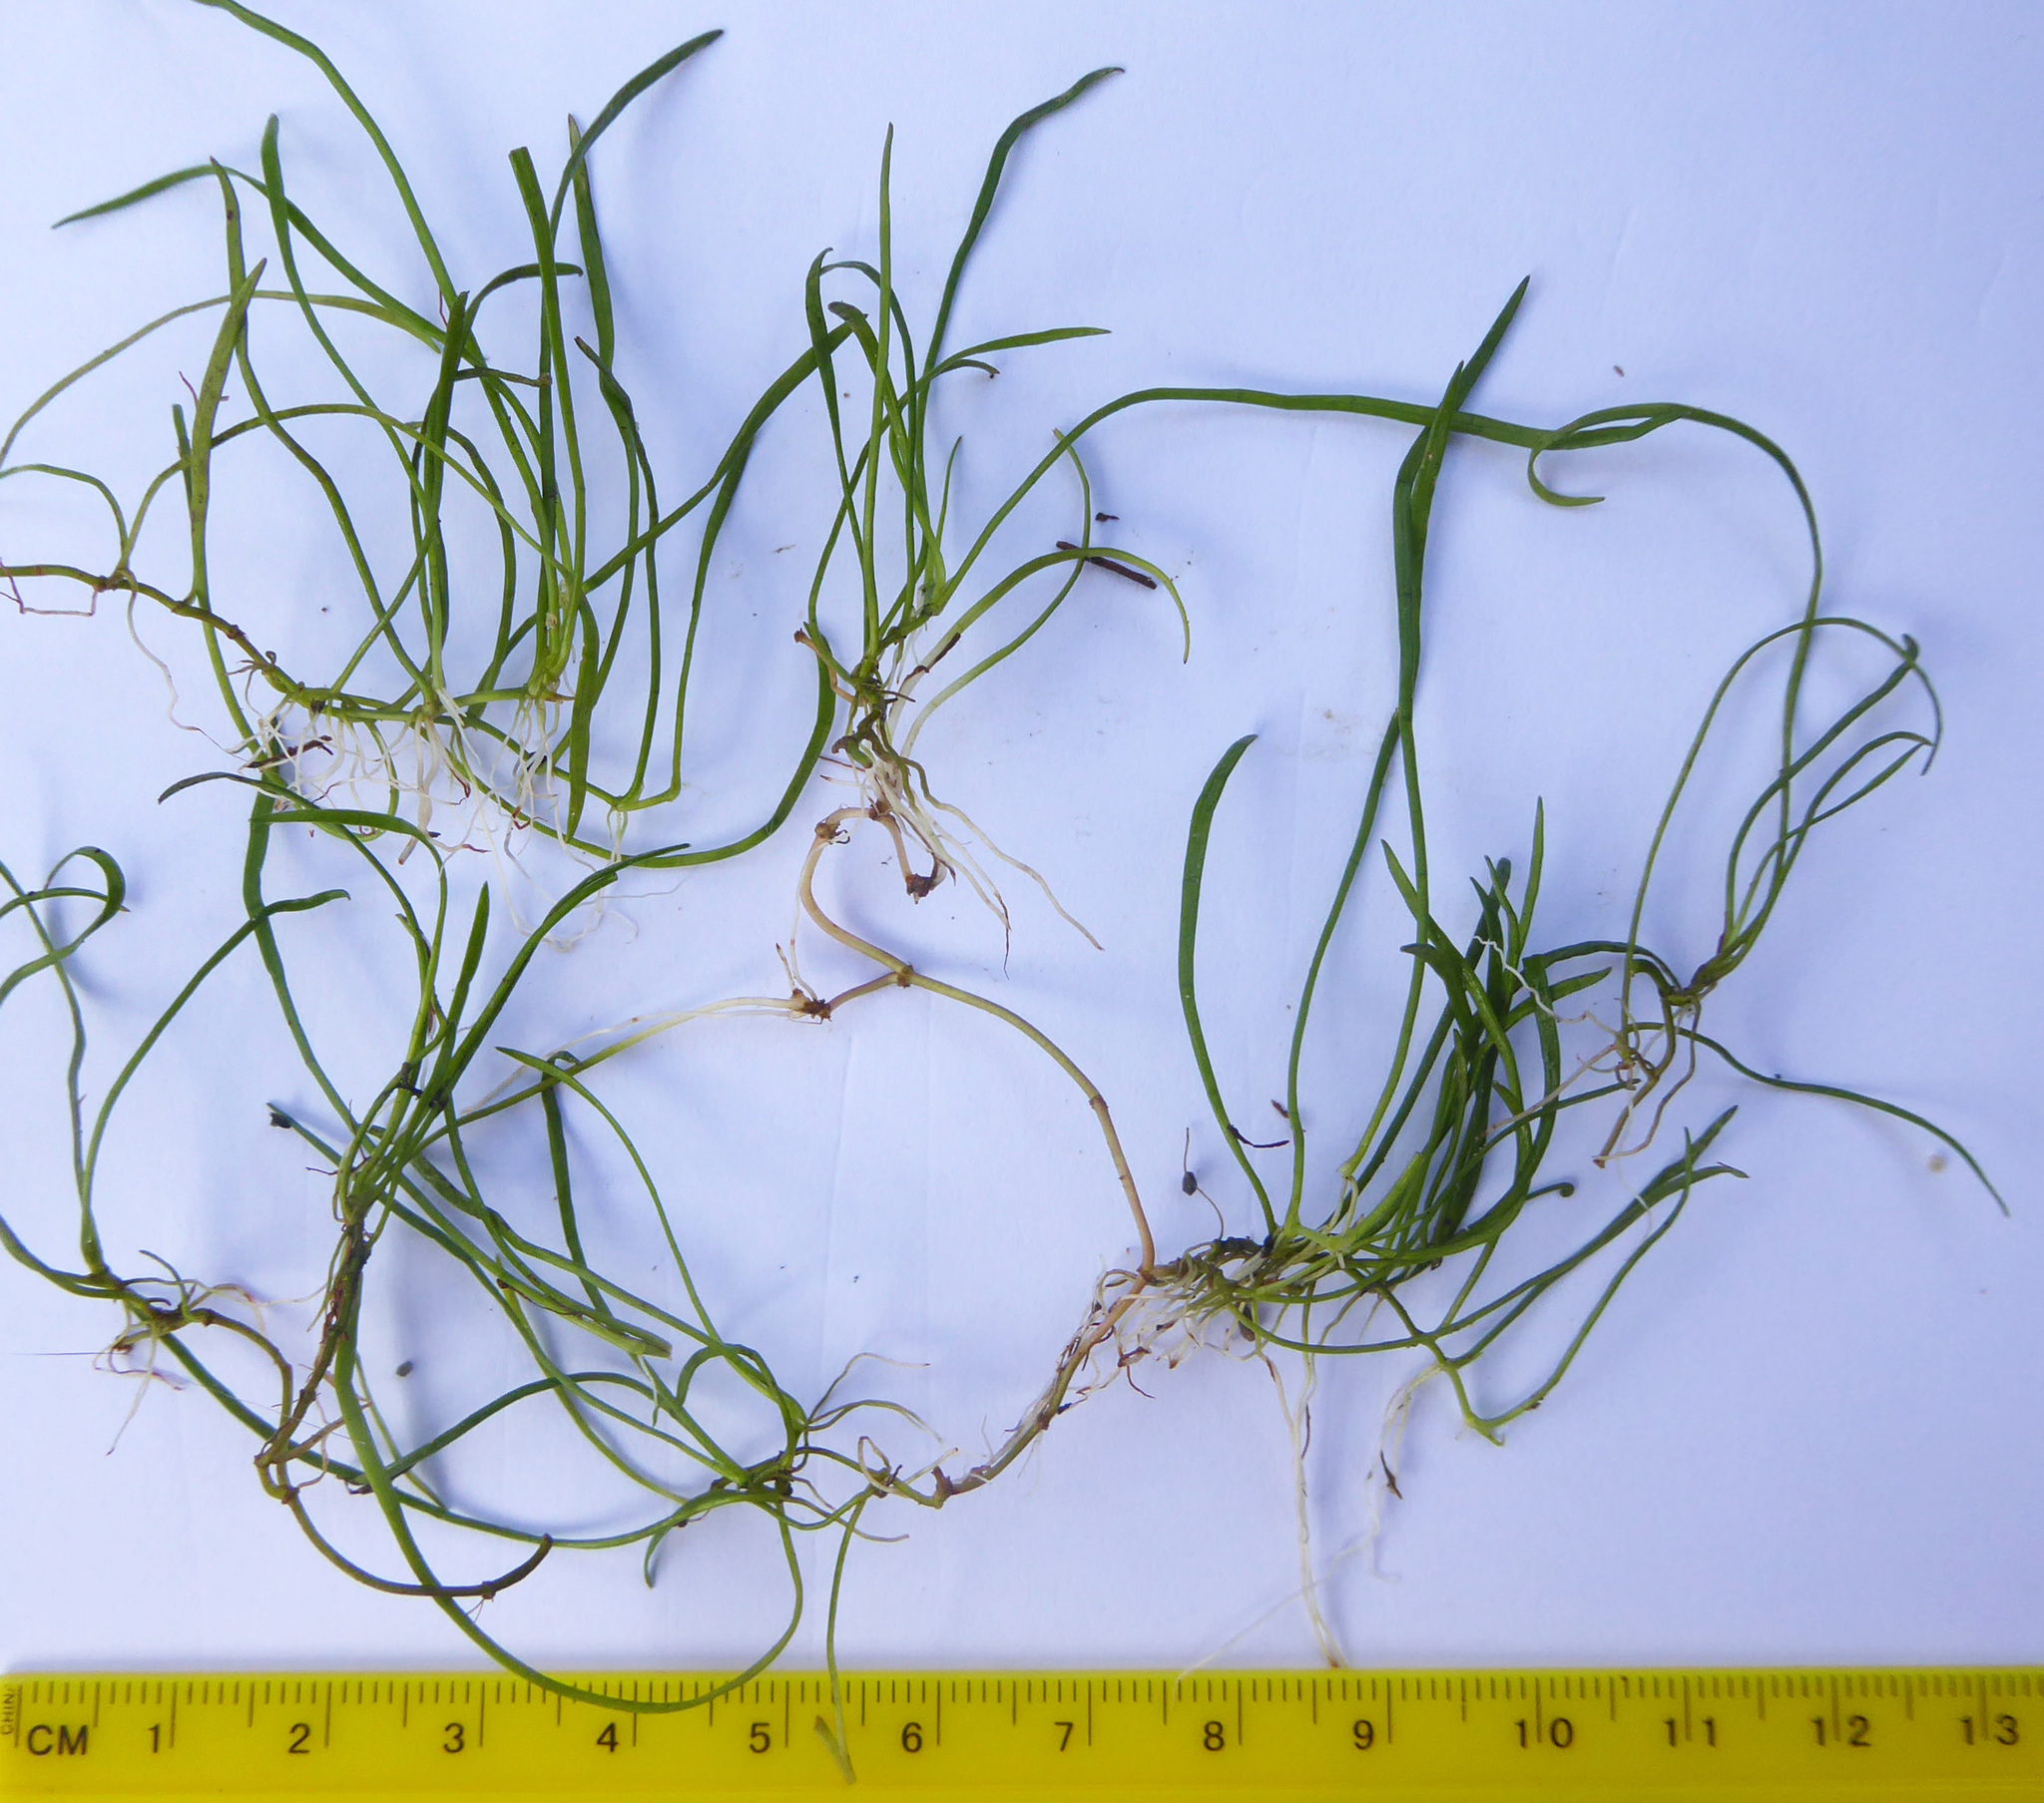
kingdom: Plantae
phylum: Tracheophyta
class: Magnoliopsida
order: Apiales
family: Apiaceae
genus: Lilaeopsis
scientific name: Lilaeopsis mauritiana
